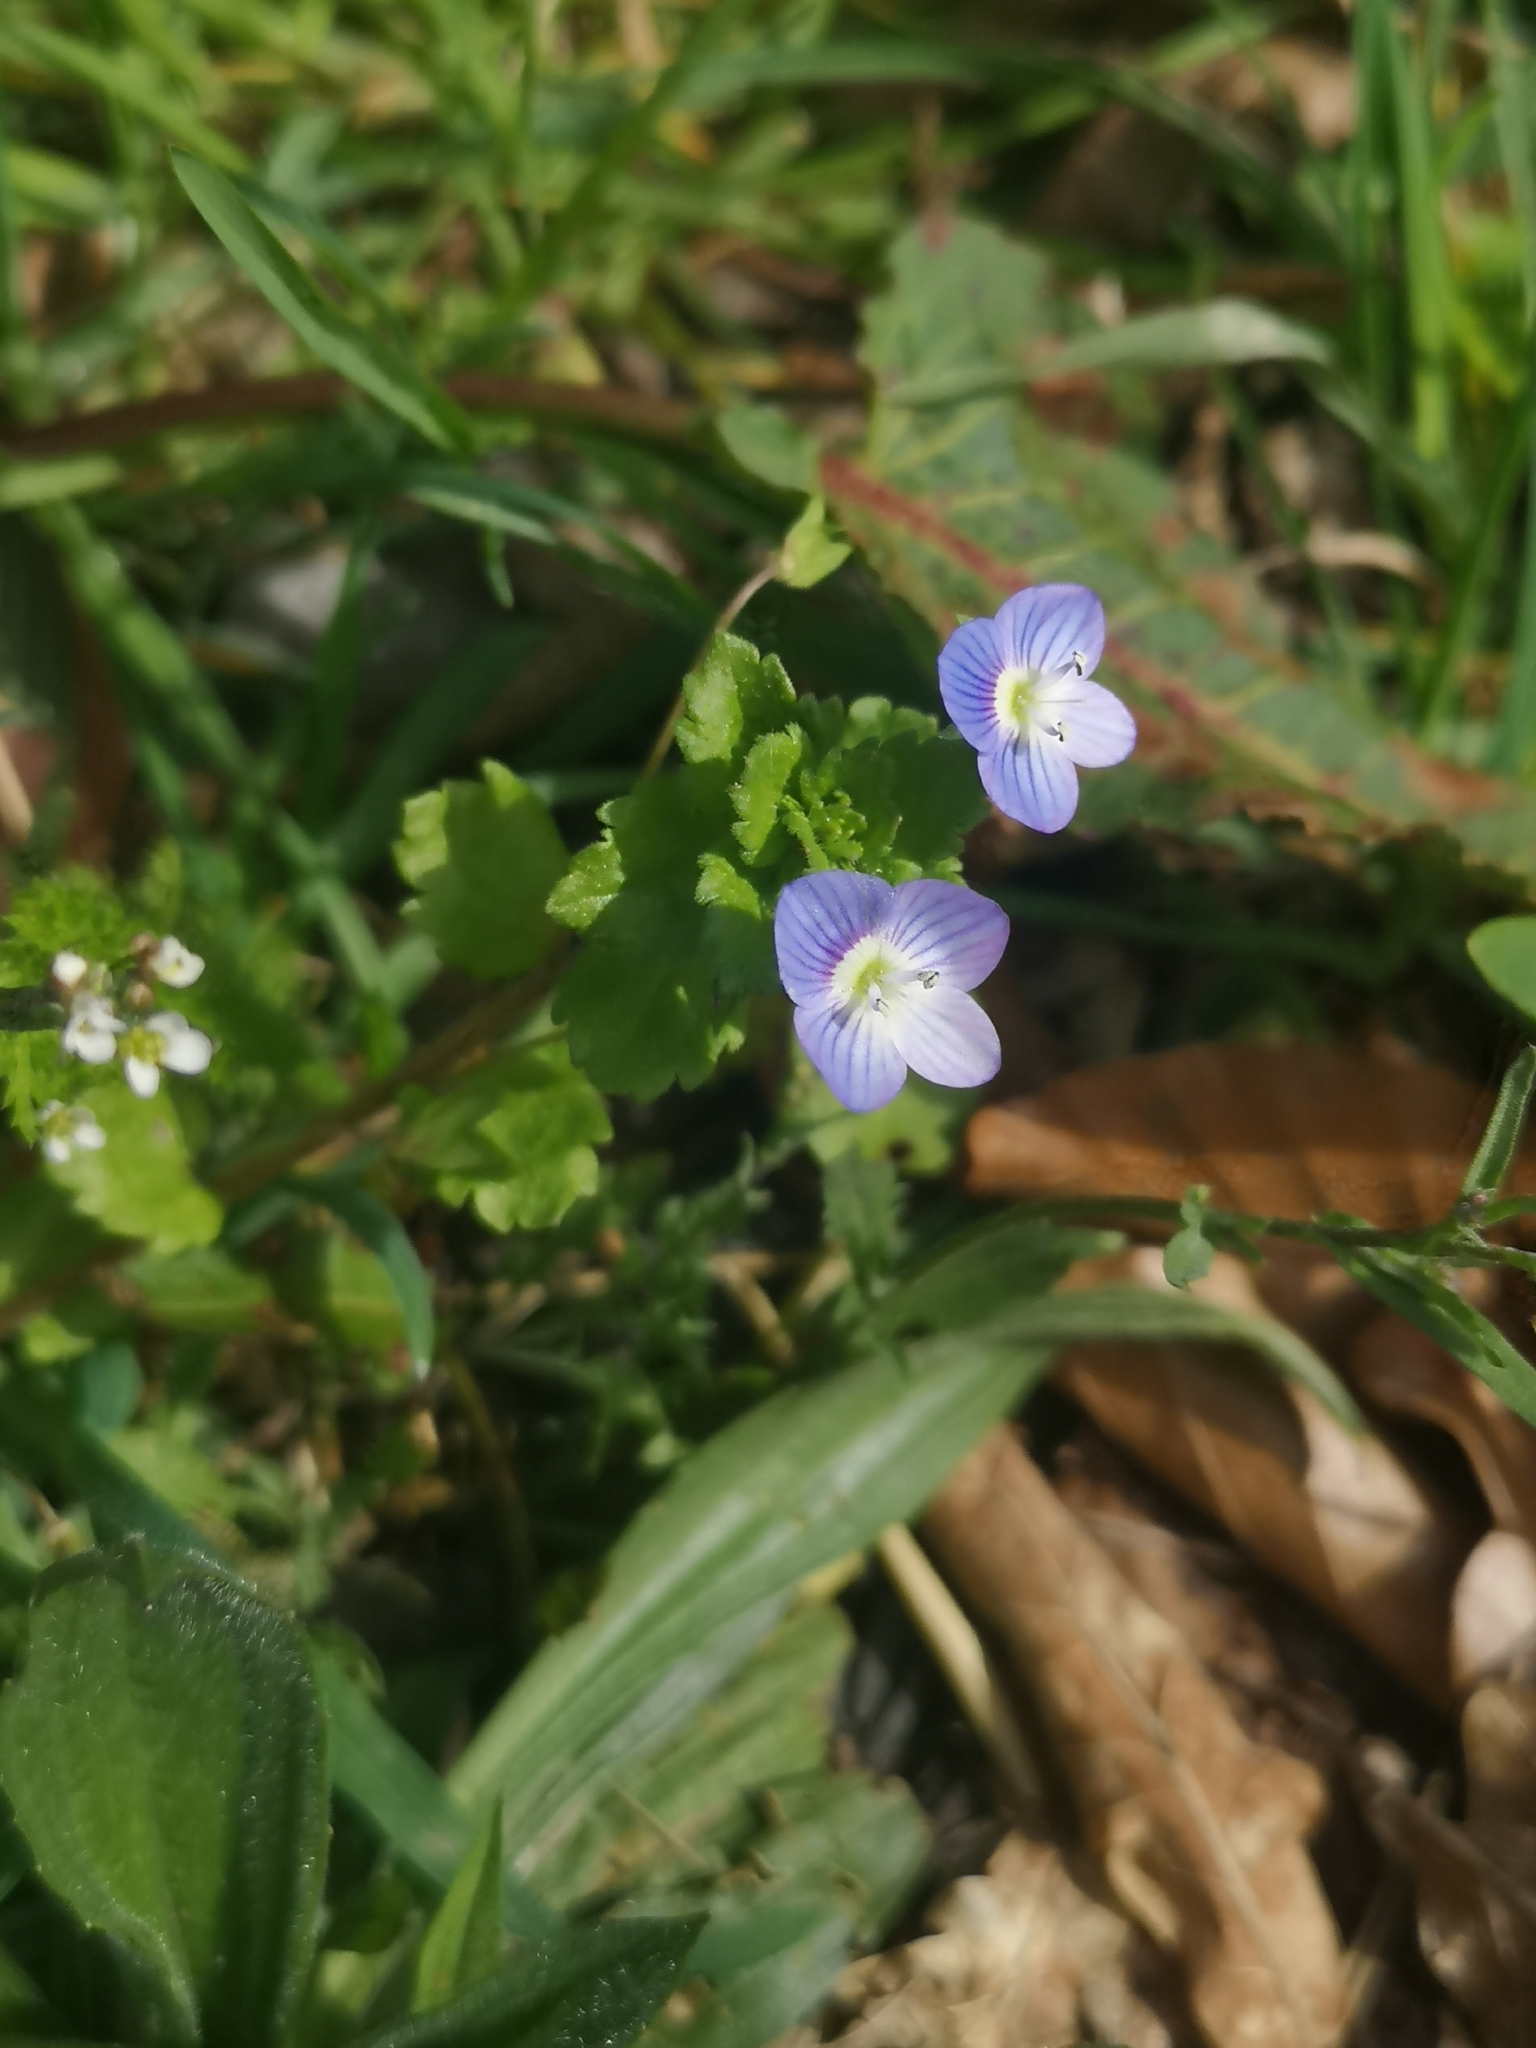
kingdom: Plantae
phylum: Tracheophyta
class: Magnoliopsida
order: Lamiales
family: Plantaginaceae
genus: Veronica
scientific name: Veronica persica
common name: Common field-speedwell
